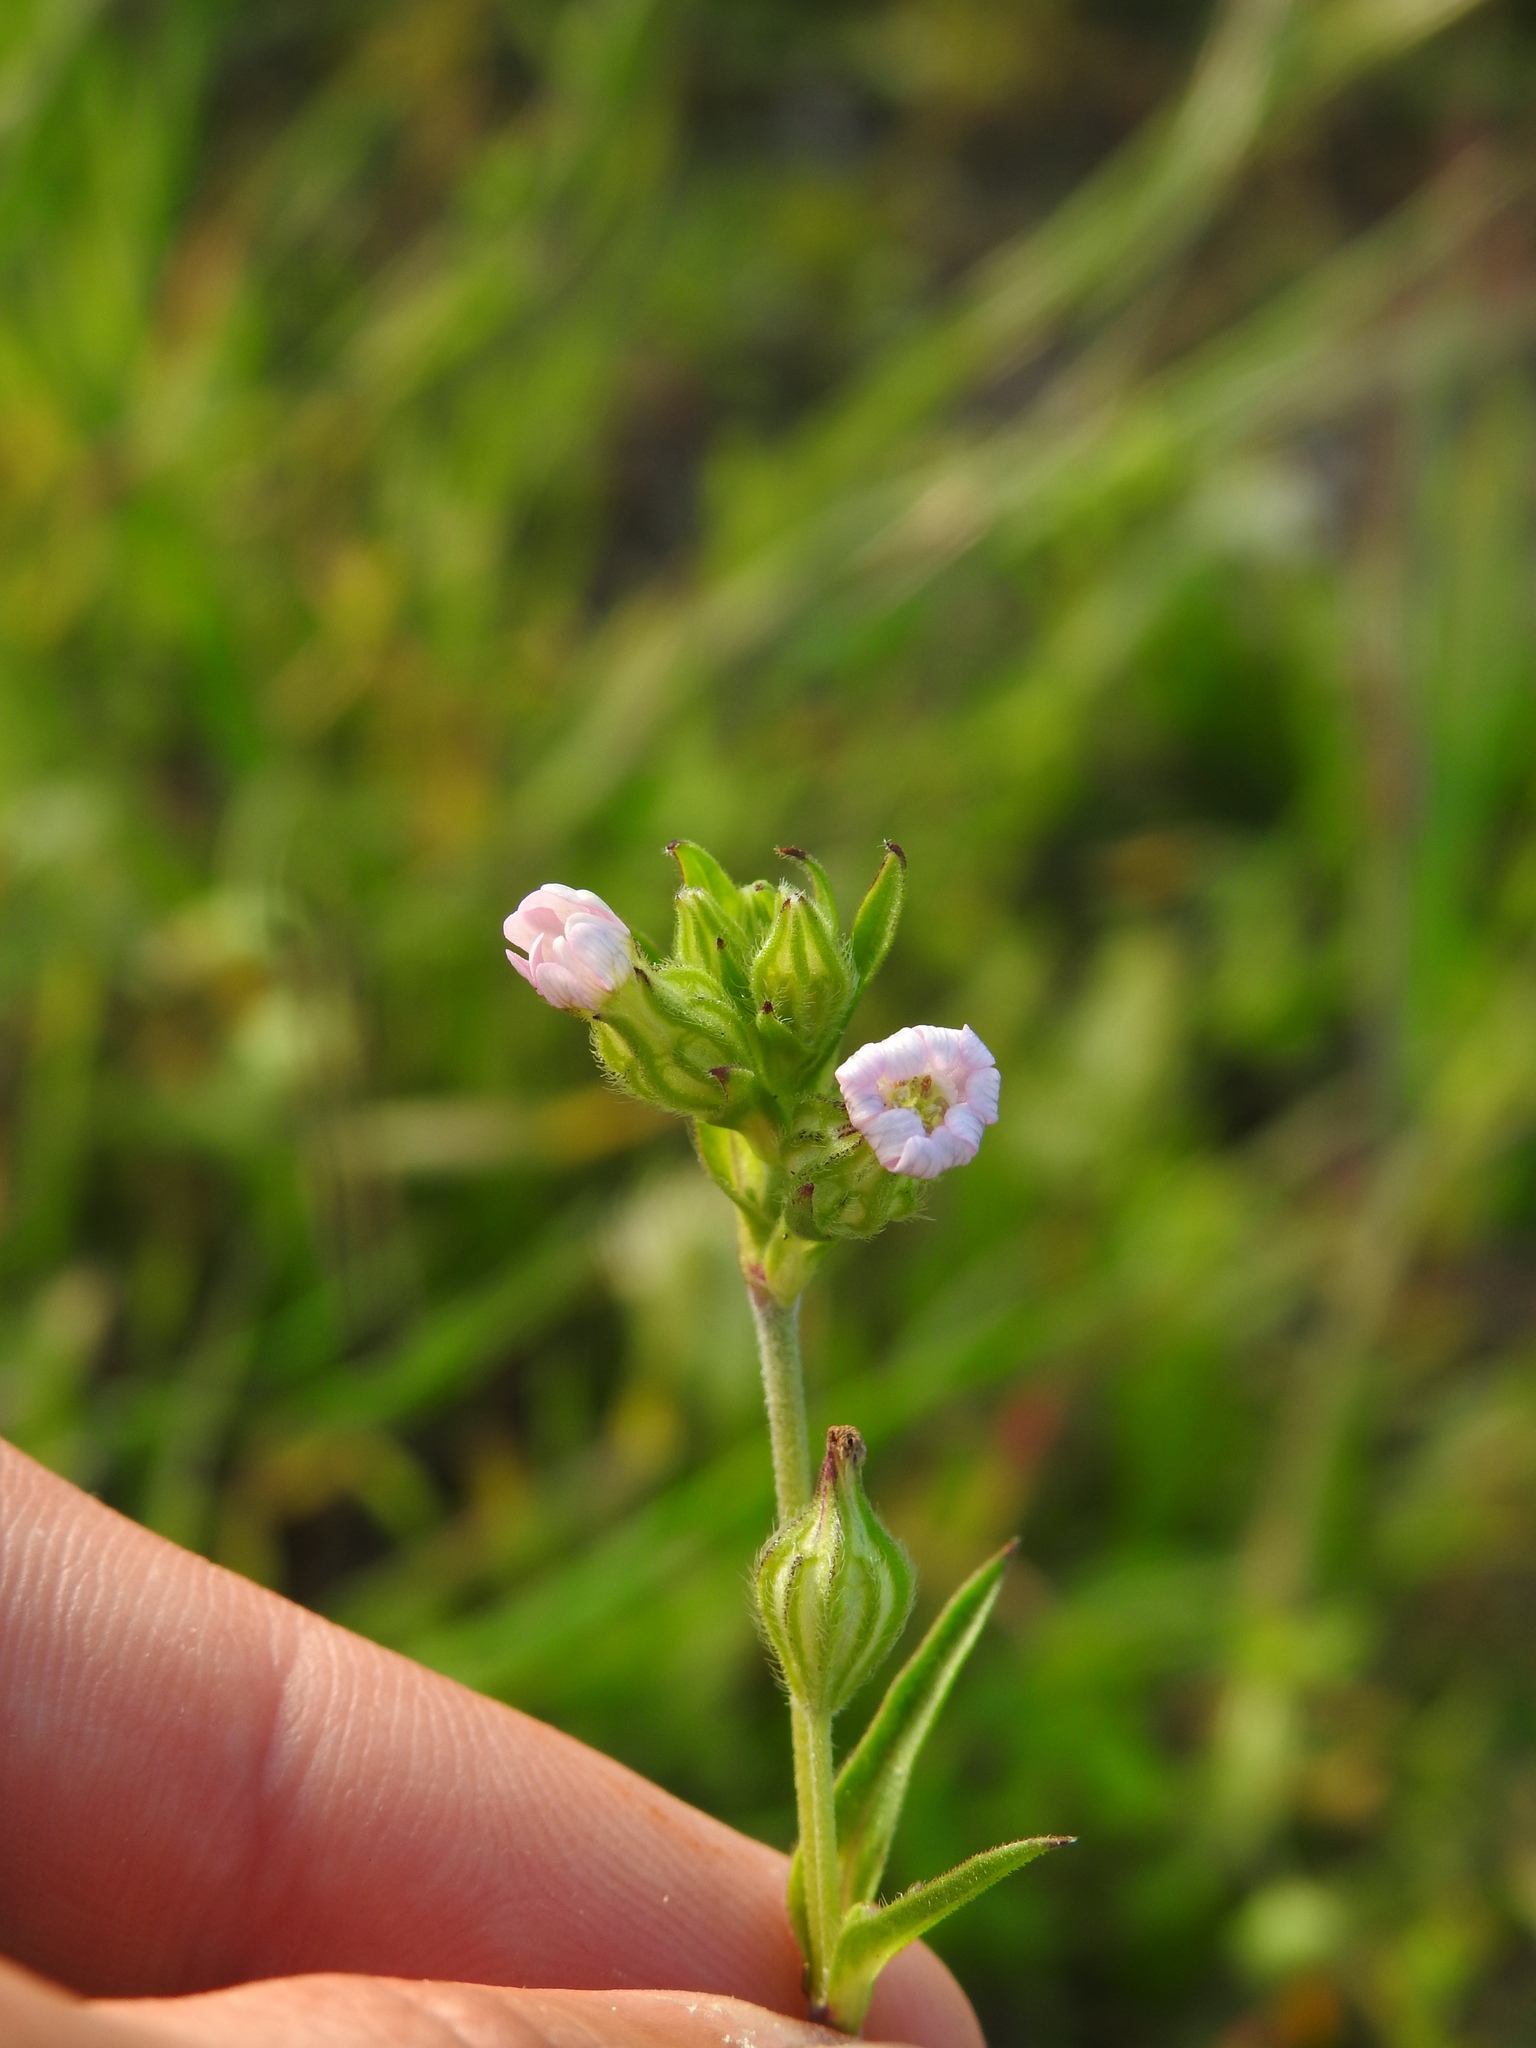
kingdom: Plantae
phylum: Tracheophyta
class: Magnoliopsida
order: Caryophyllales
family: Caryophyllaceae
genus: Silene
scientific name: Silene apetala
